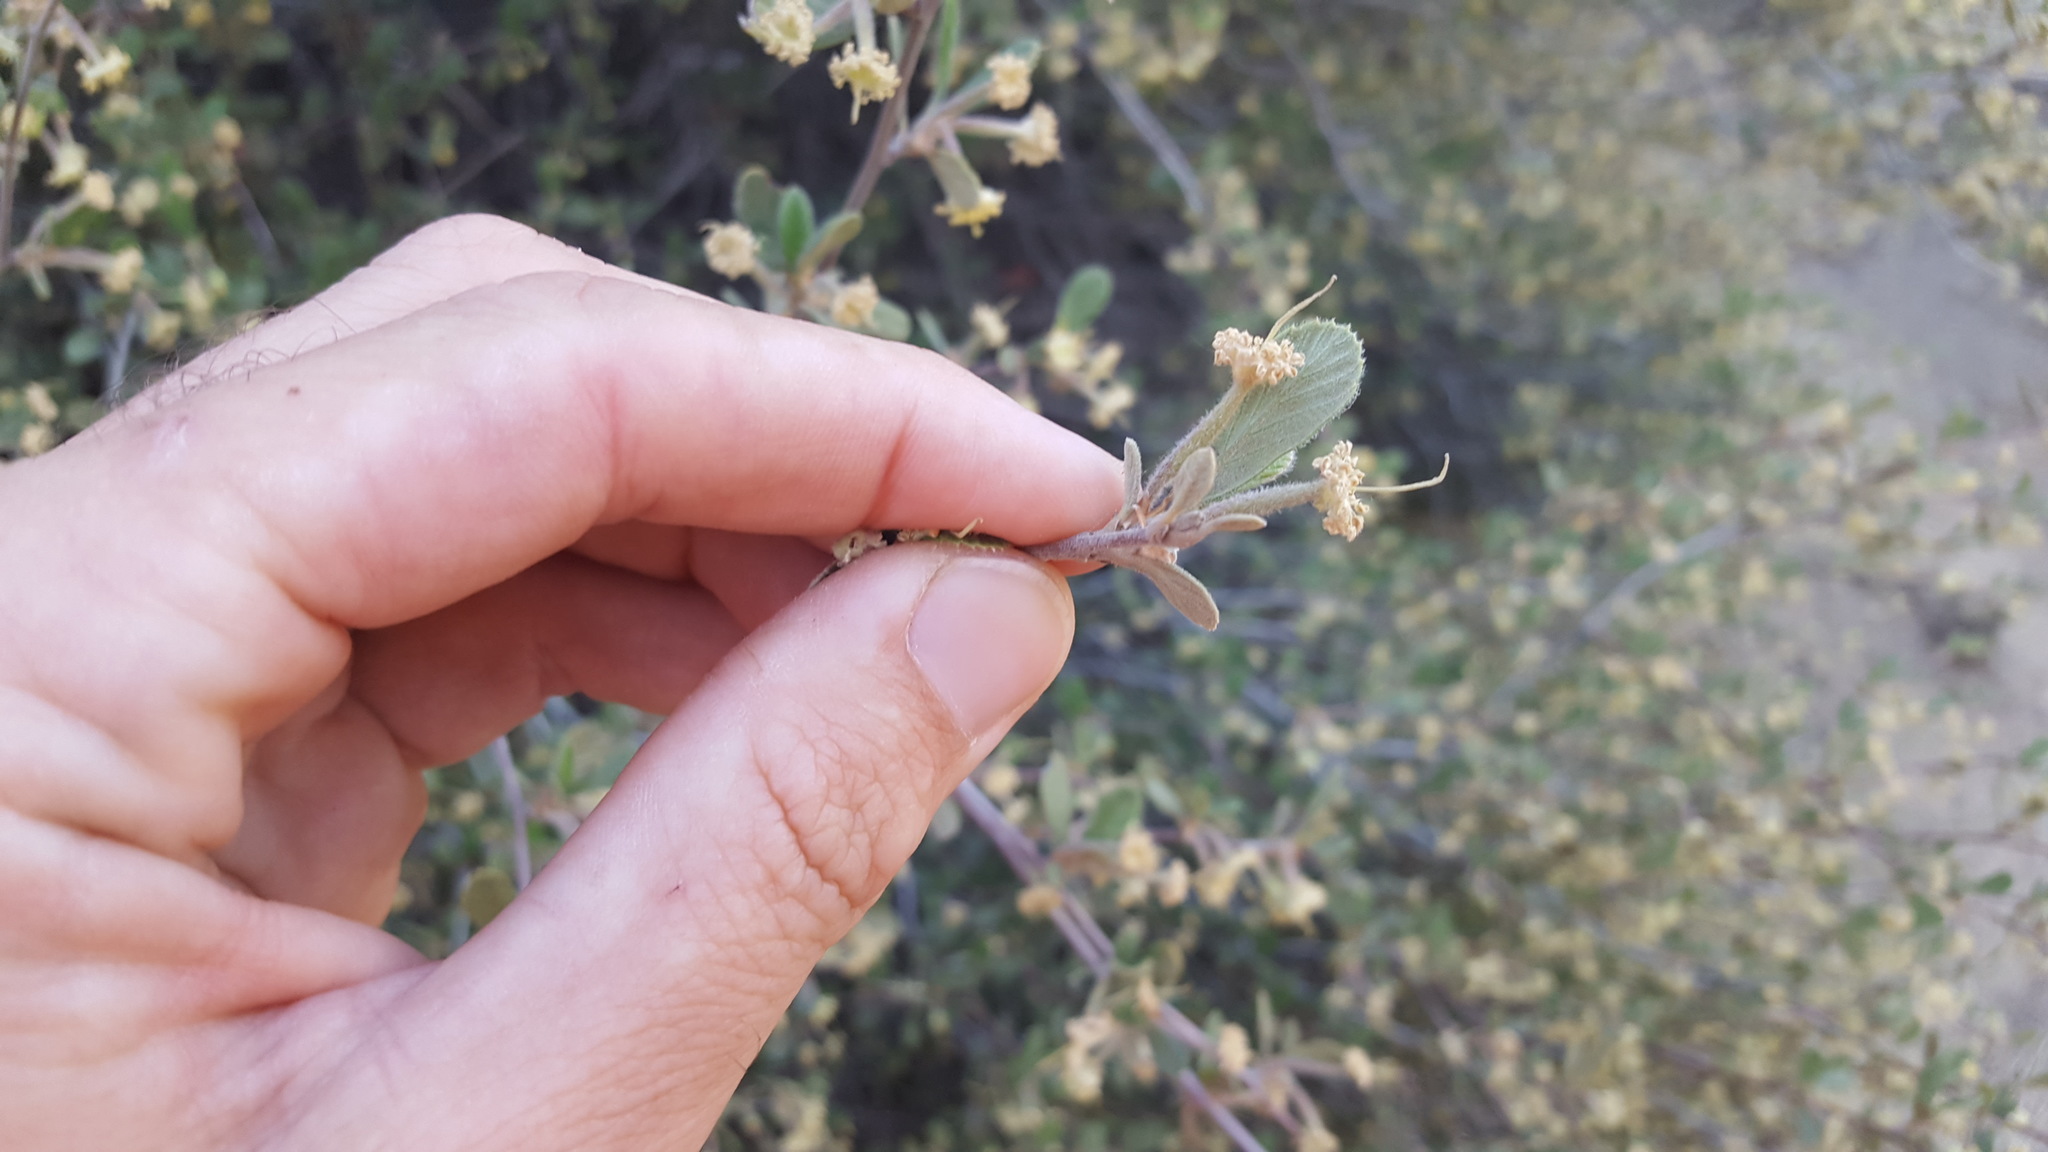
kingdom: Plantae
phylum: Tracheophyta
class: Magnoliopsida
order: Rosales
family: Rosaceae
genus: Cercocarpus
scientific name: Cercocarpus betuloides
